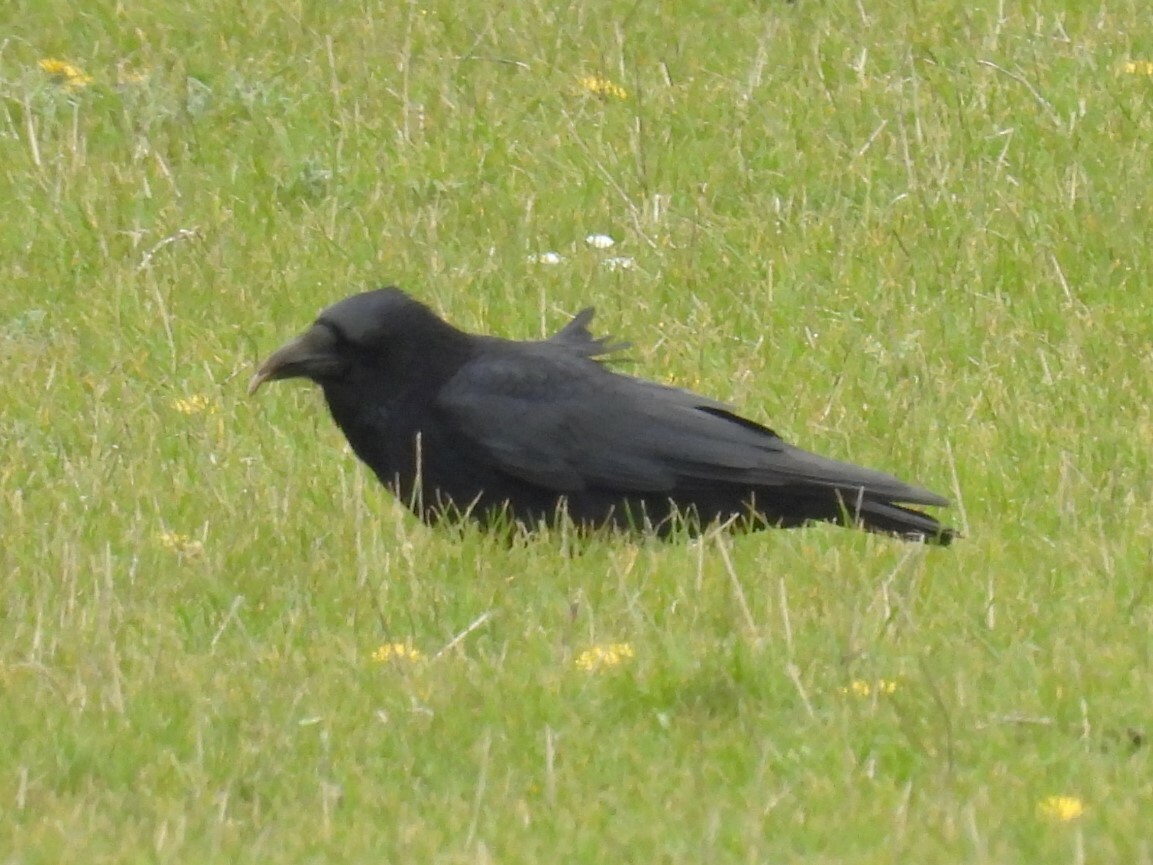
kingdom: Animalia
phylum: Chordata
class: Aves
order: Passeriformes
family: Corvidae
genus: Corvus
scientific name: Corvus corone
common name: Carrion crow
